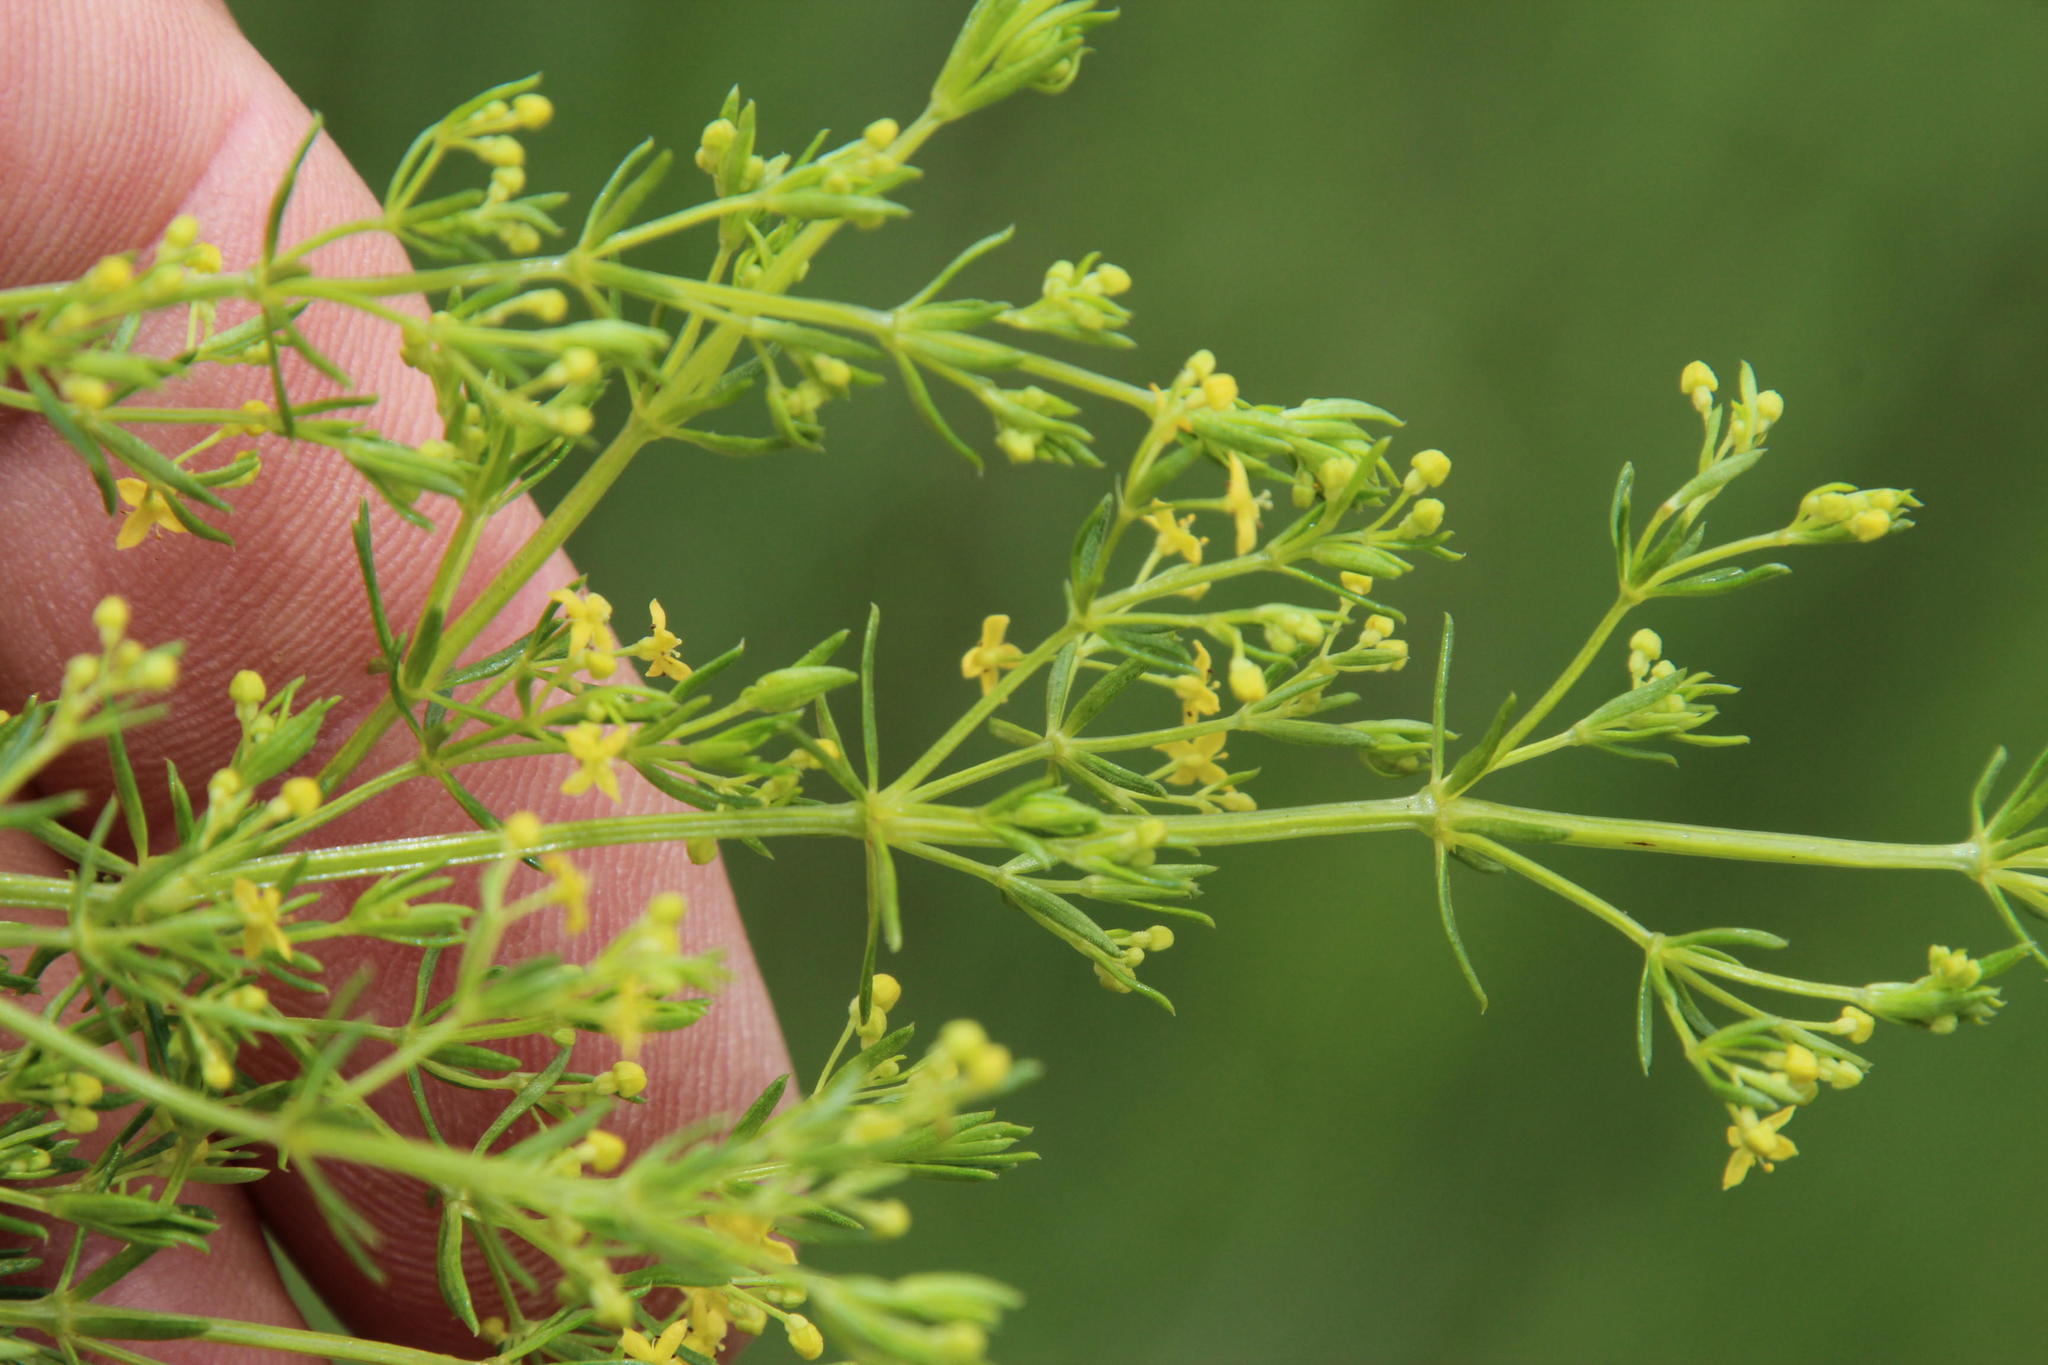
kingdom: Plantae
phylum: Tracheophyta
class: Magnoliopsida
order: Gentianales
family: Rubiaceae
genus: Galium
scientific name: Galium capense
